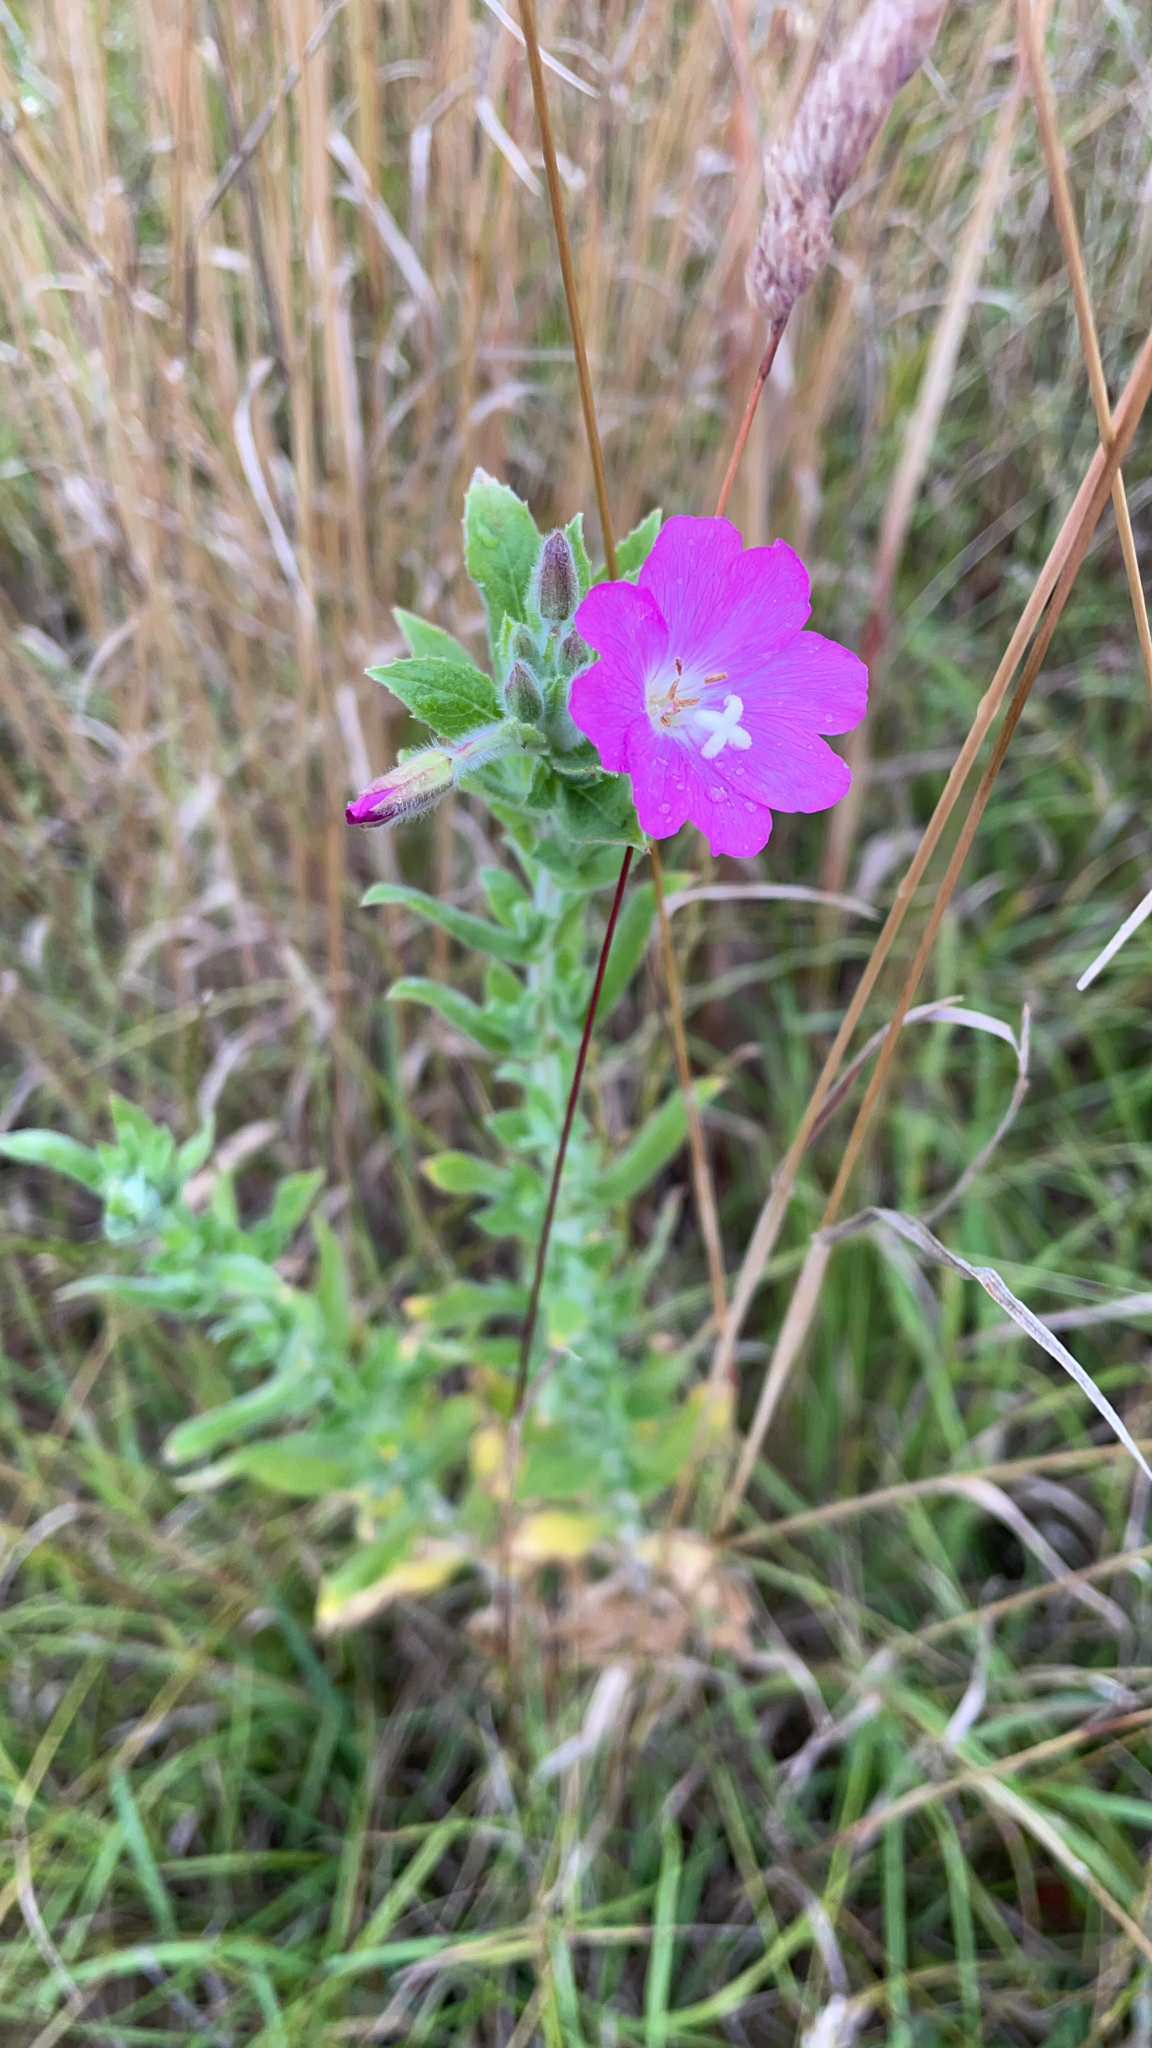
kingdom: Plantae
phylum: Tracheophyta
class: Magnoliopsida
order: Myrtales
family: Onagraceae
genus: Epilobium
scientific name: Epilobium hirsutum
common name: Great willowherb
